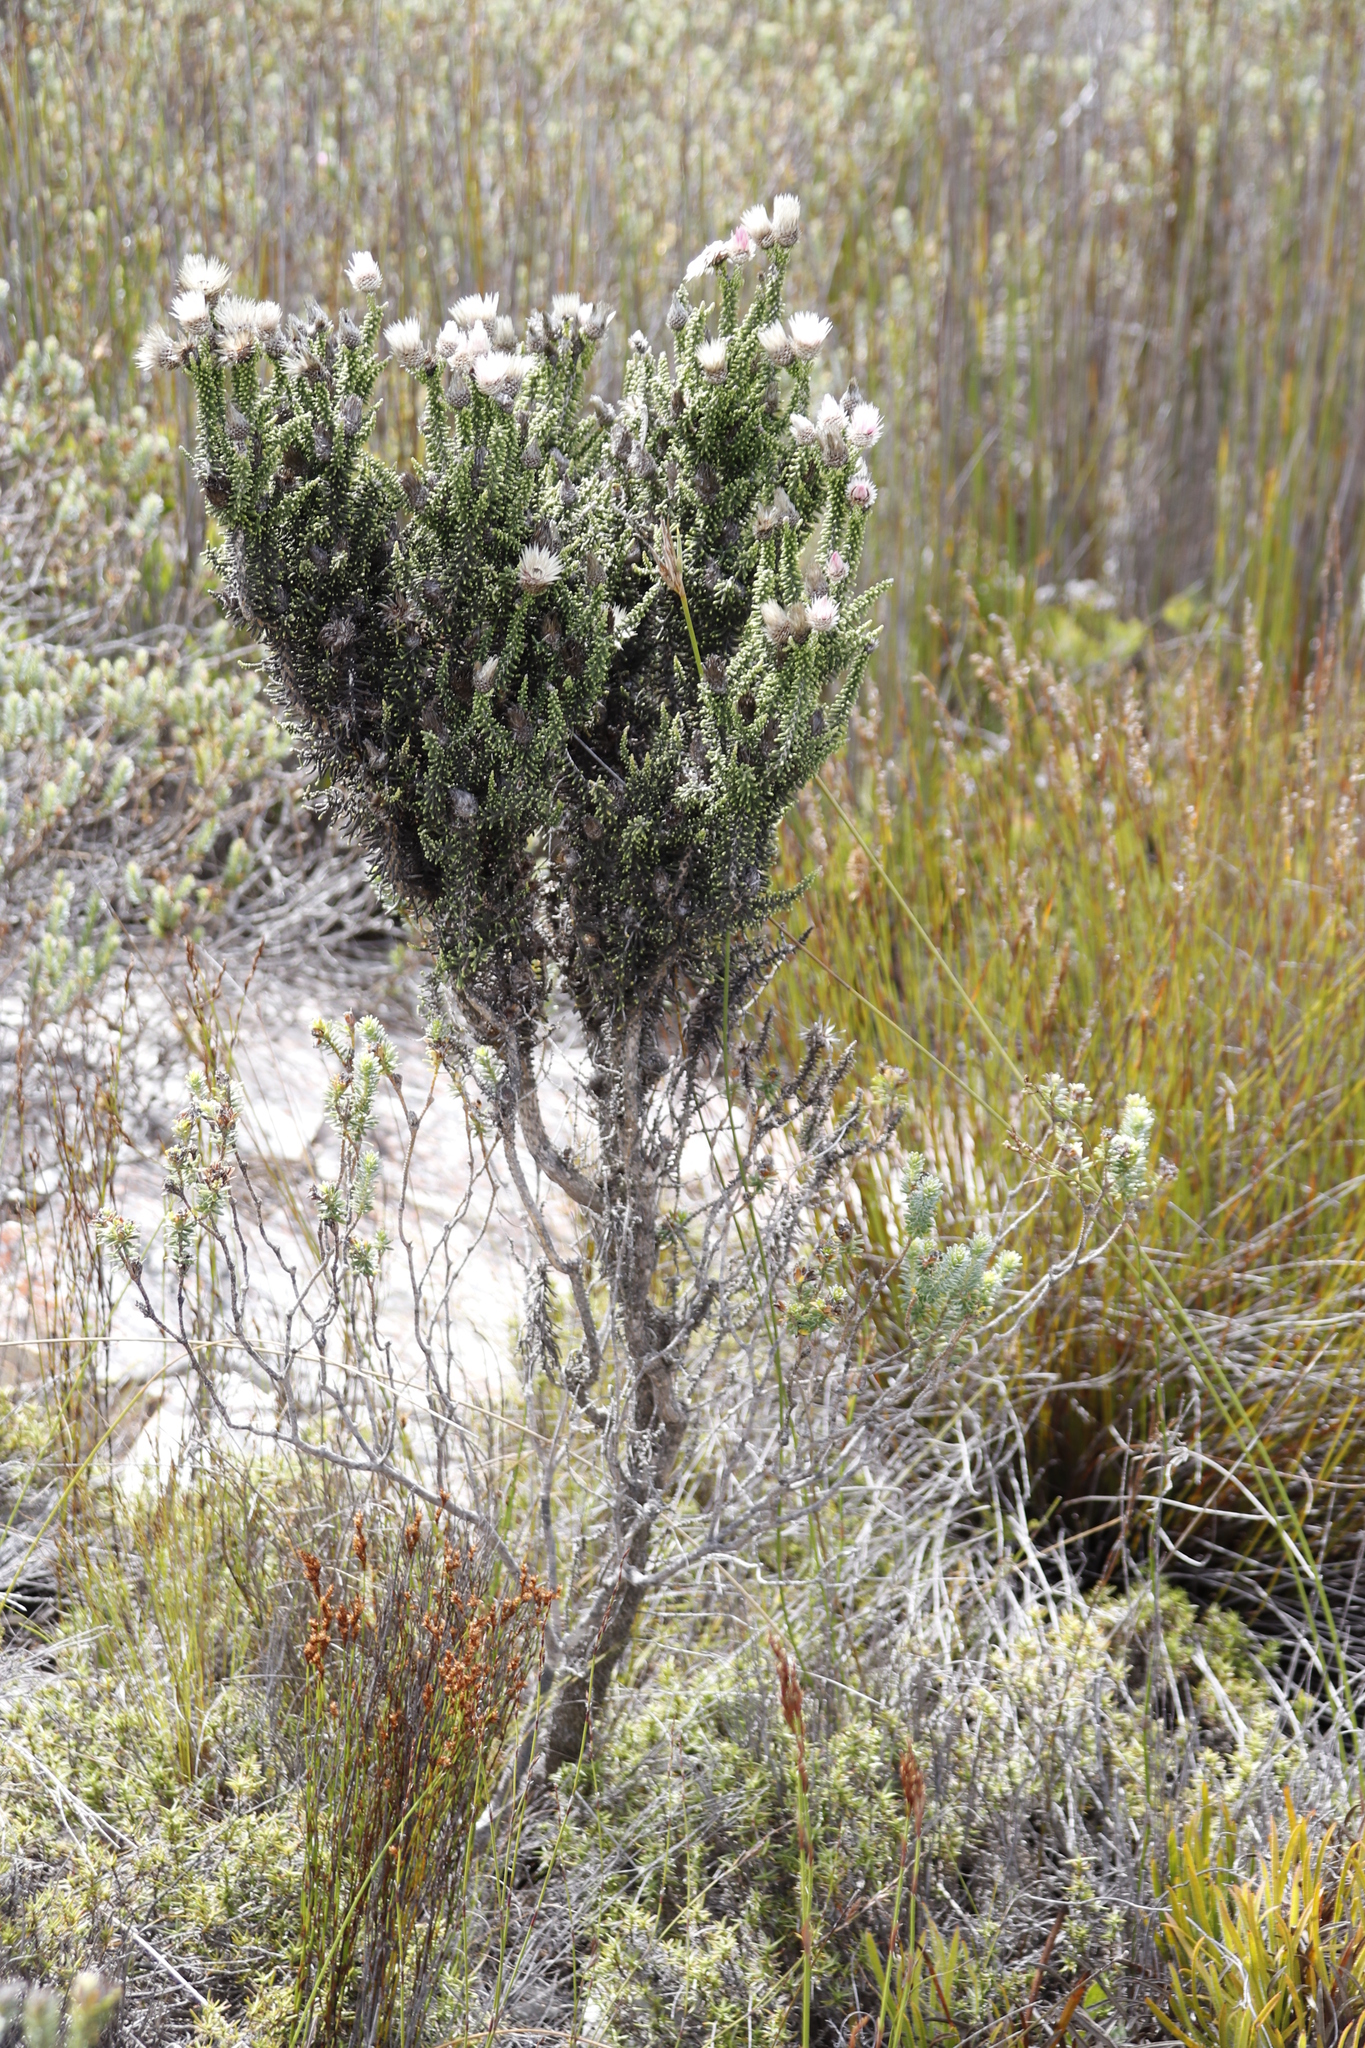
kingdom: Plantae
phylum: Tracheophyta
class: Magnoliopsida
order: Asterales
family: Asteraceae
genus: Phaenocoma
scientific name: Phaenocoma prolifera
